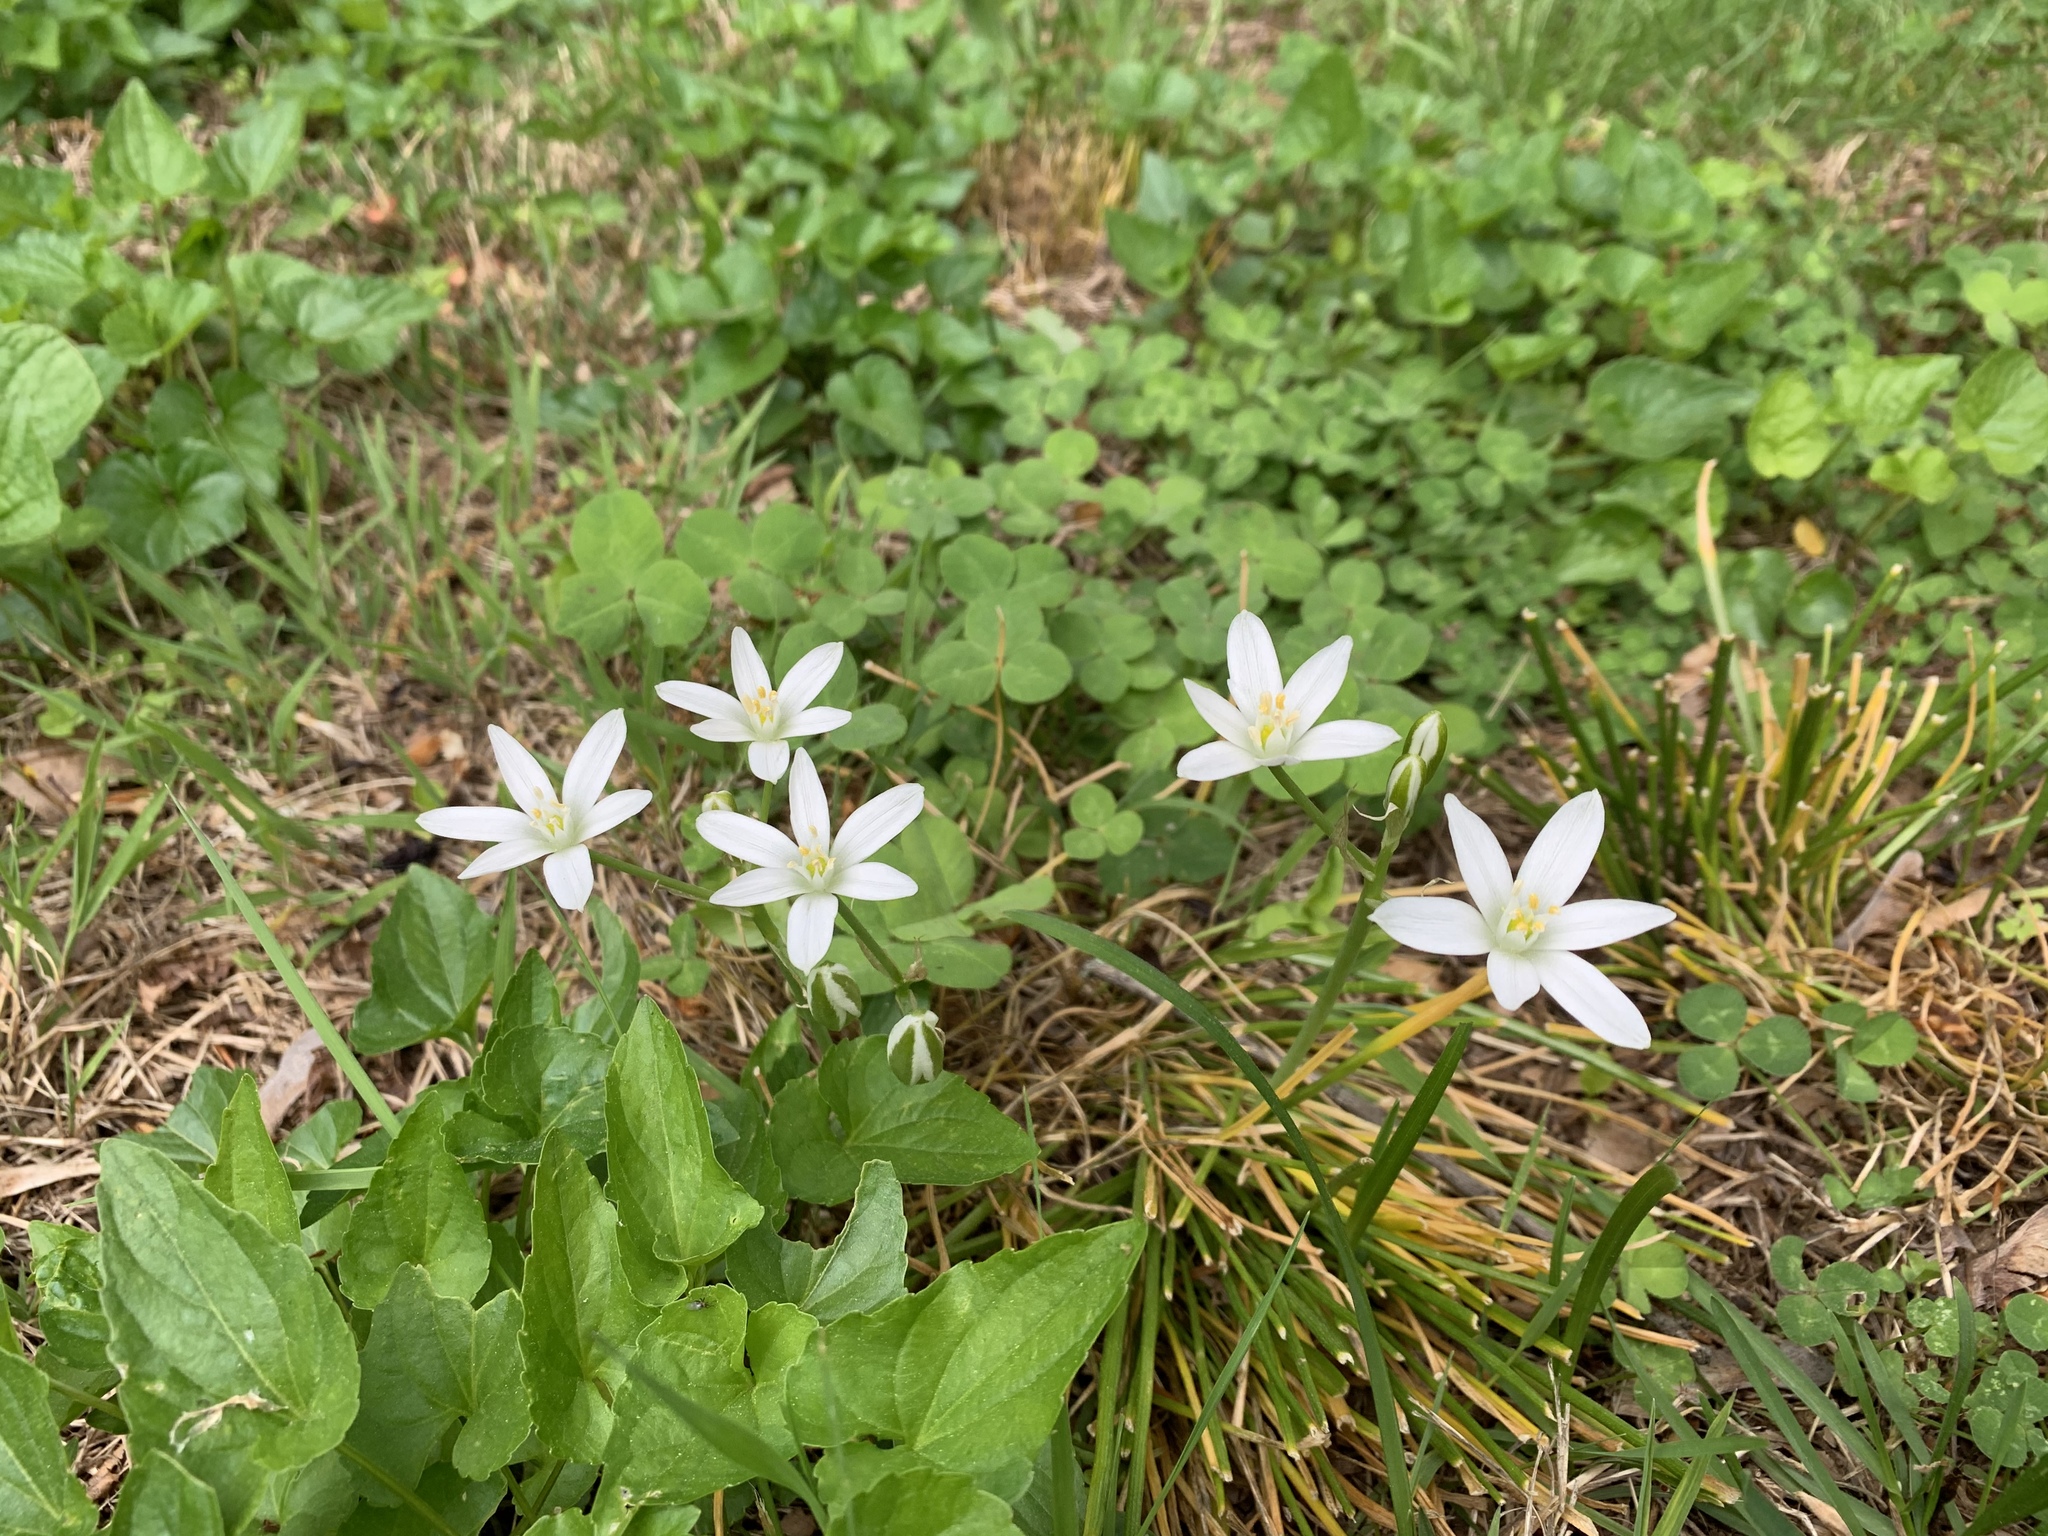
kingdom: Plantae
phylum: Tracheophyta
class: Liliopsida
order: Asparagales
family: Asparagaceae
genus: Ornithogalum
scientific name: Ornithogalum umbellatum
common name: Garden star-of-bethlehem
